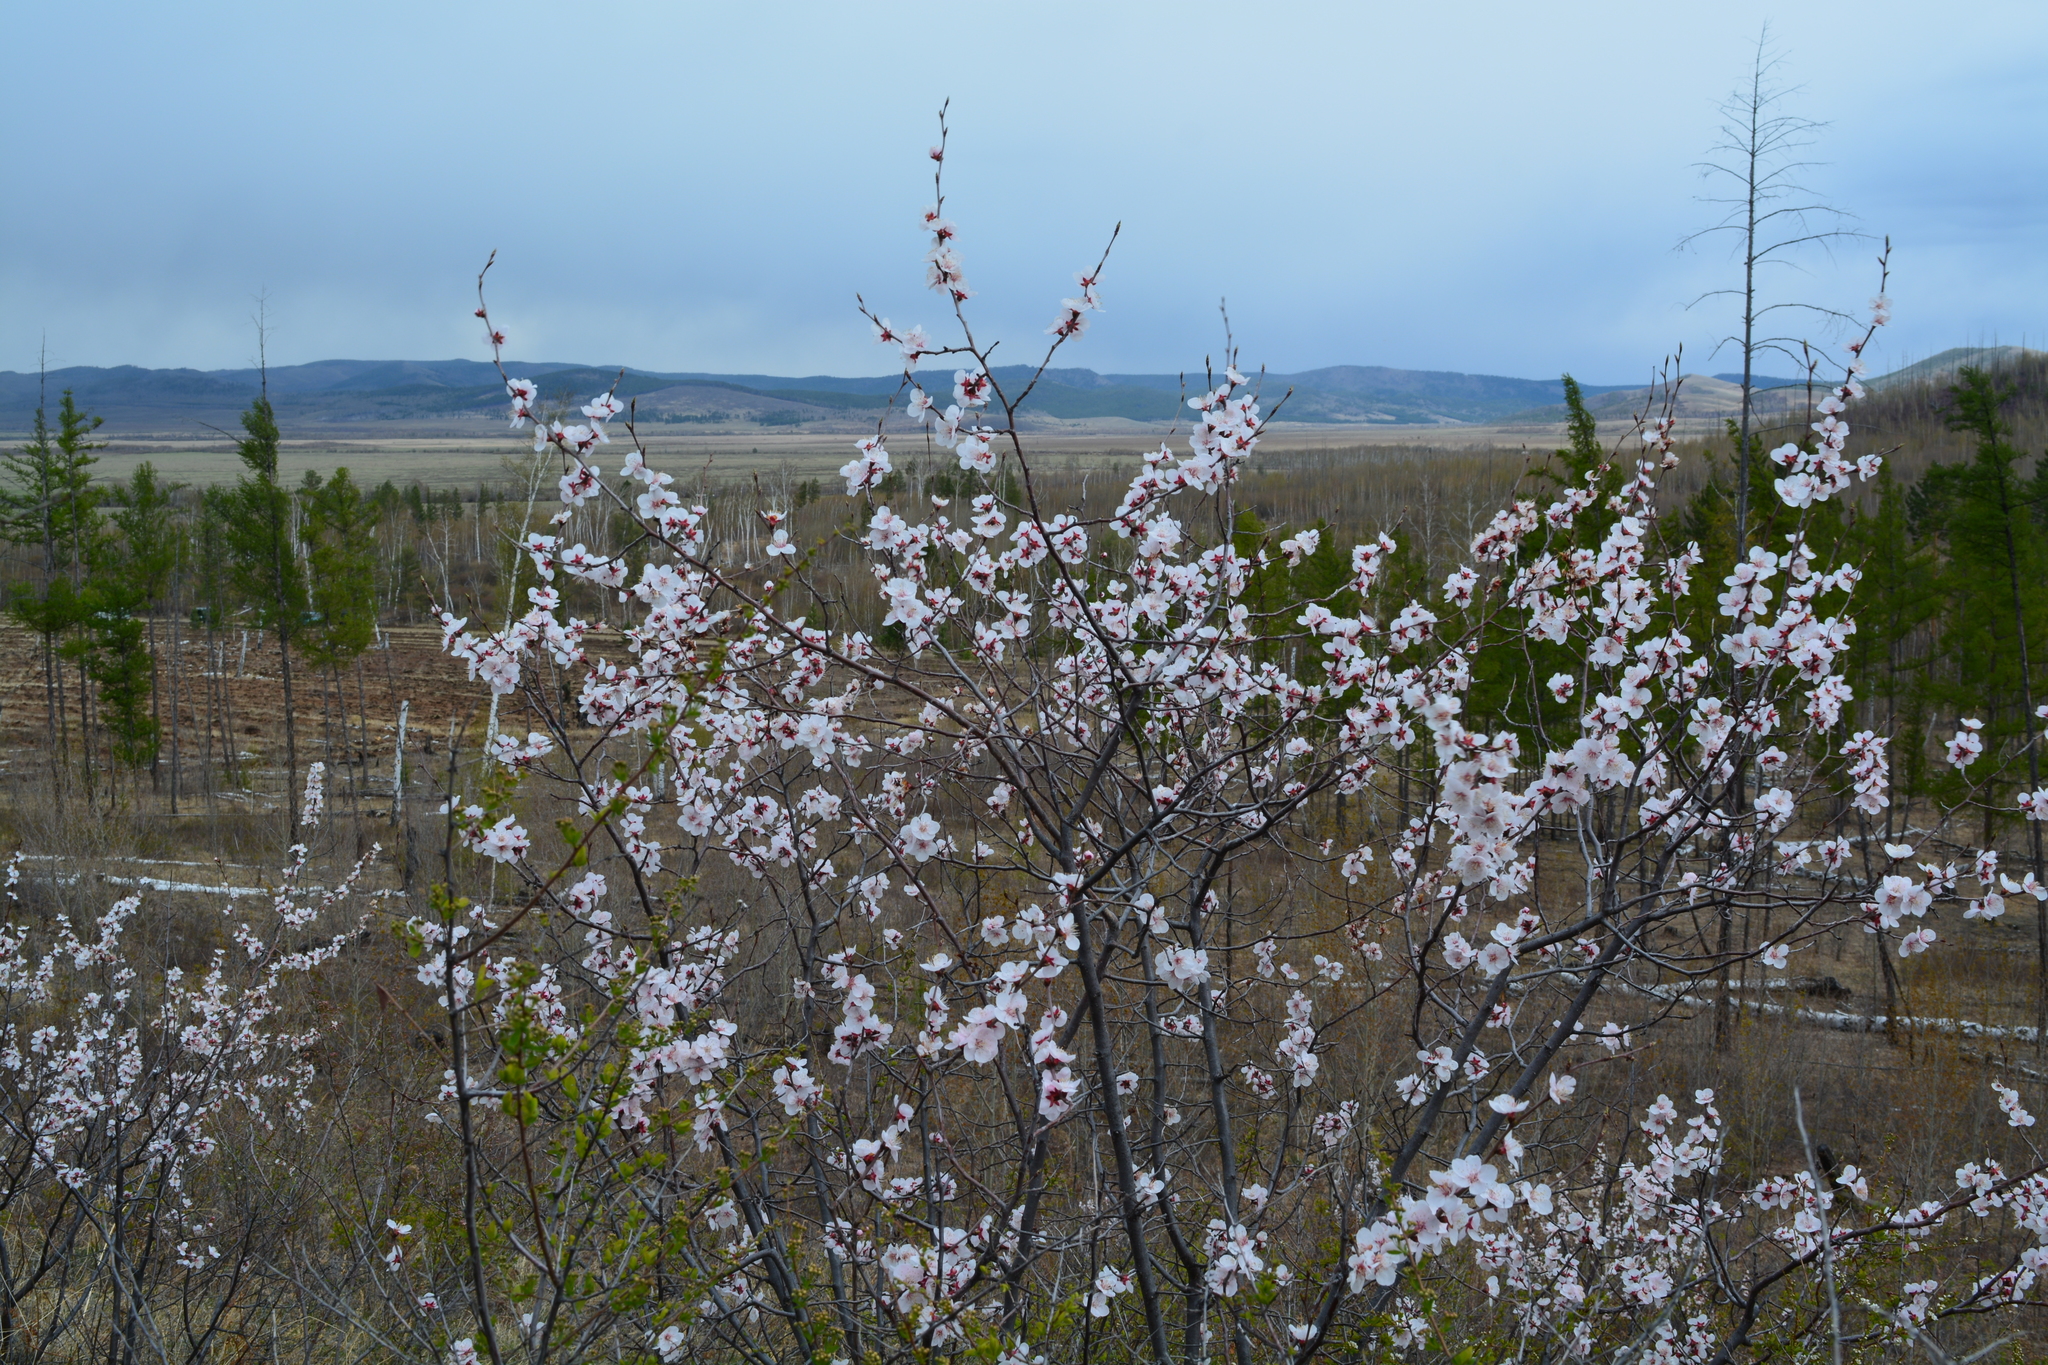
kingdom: Plantae
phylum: Tracheophyta
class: Magnoliopsida
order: Rosales
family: Rosaceae
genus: Prunus
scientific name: Prunus sibirica
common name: Siberian apricot
